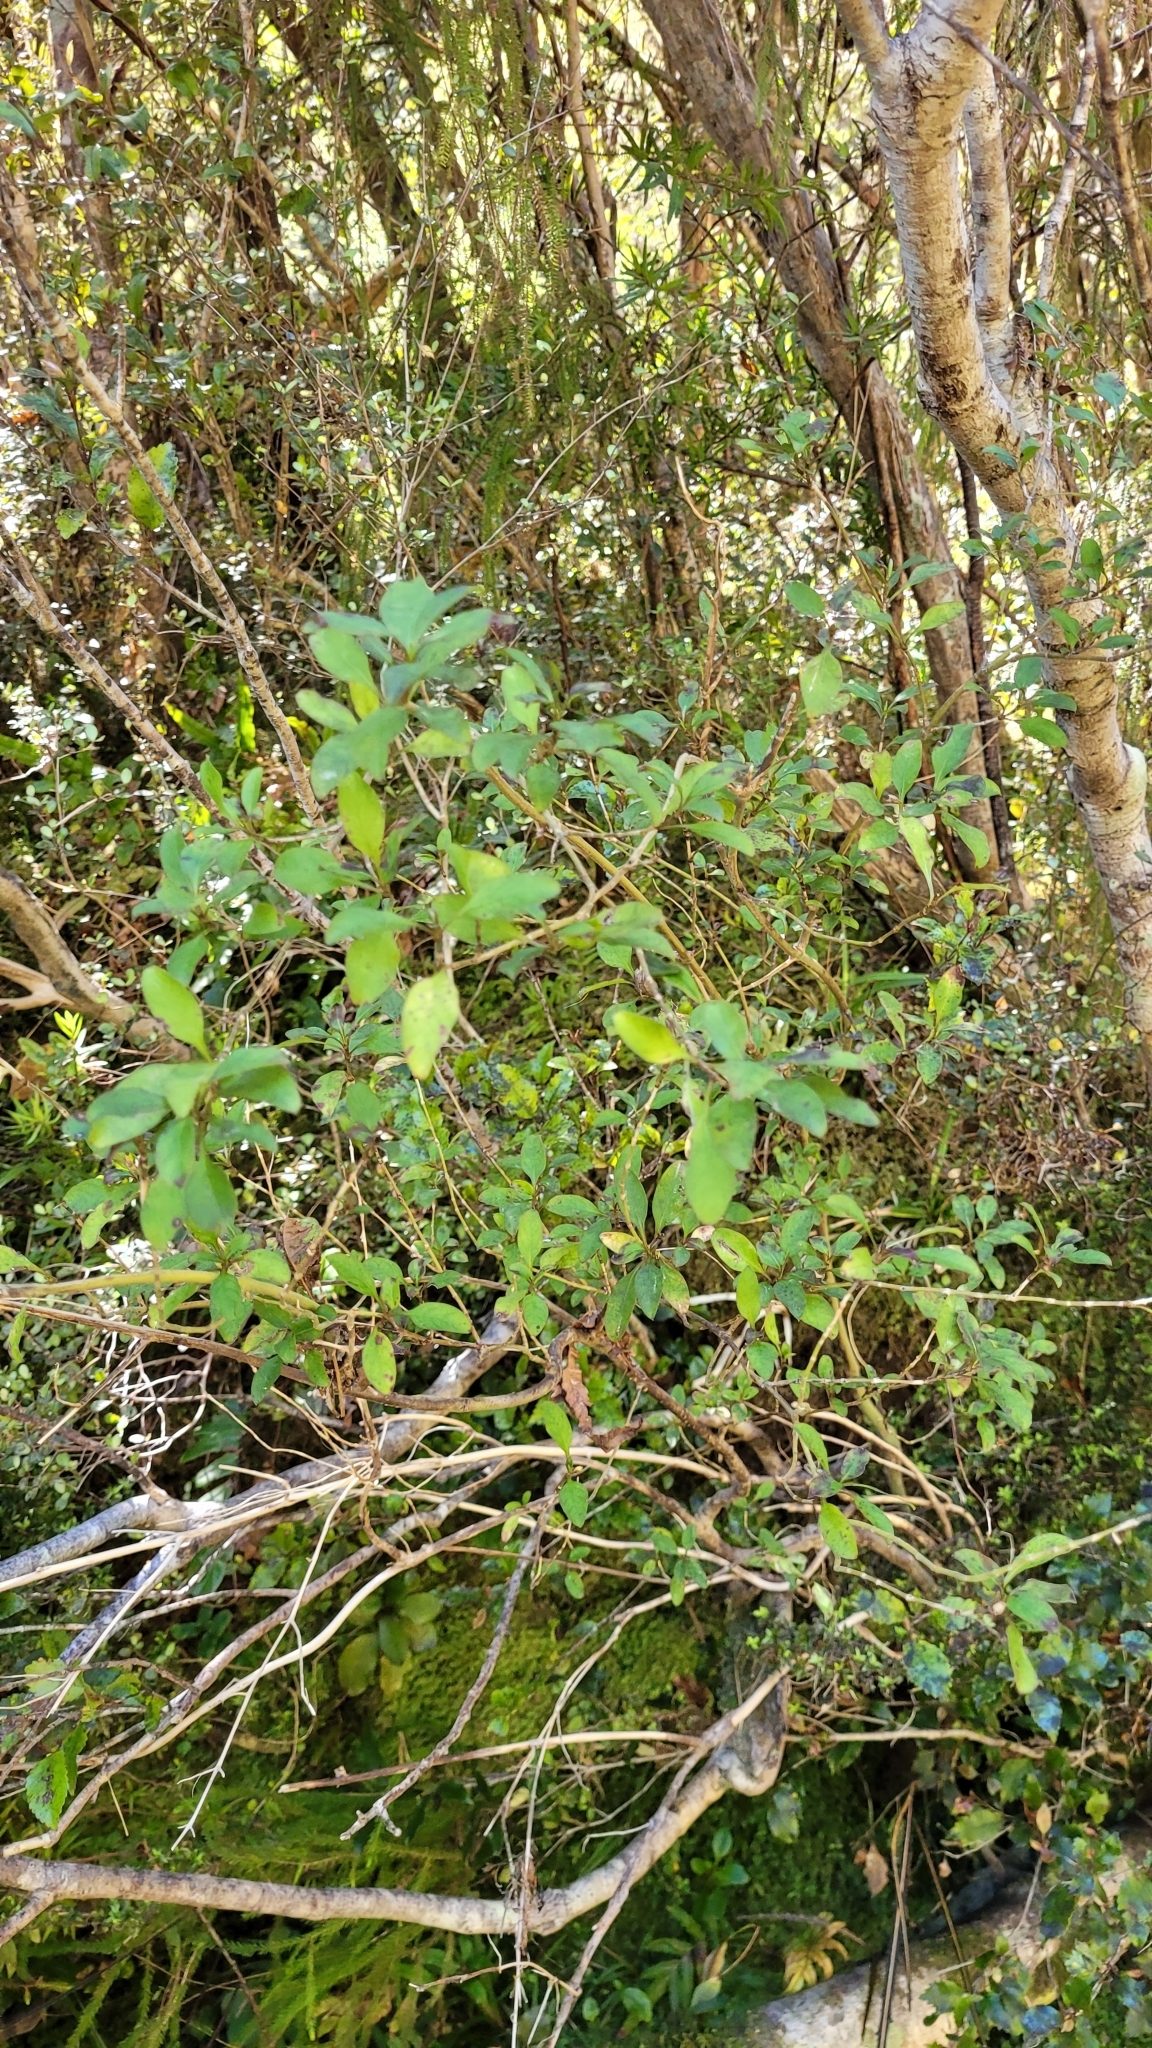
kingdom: Plantae
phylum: Tracheophyta
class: Magnoliopsida
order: Gentianales
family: Rubiaceae
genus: Coprosma
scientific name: Coprosma foetidissima
